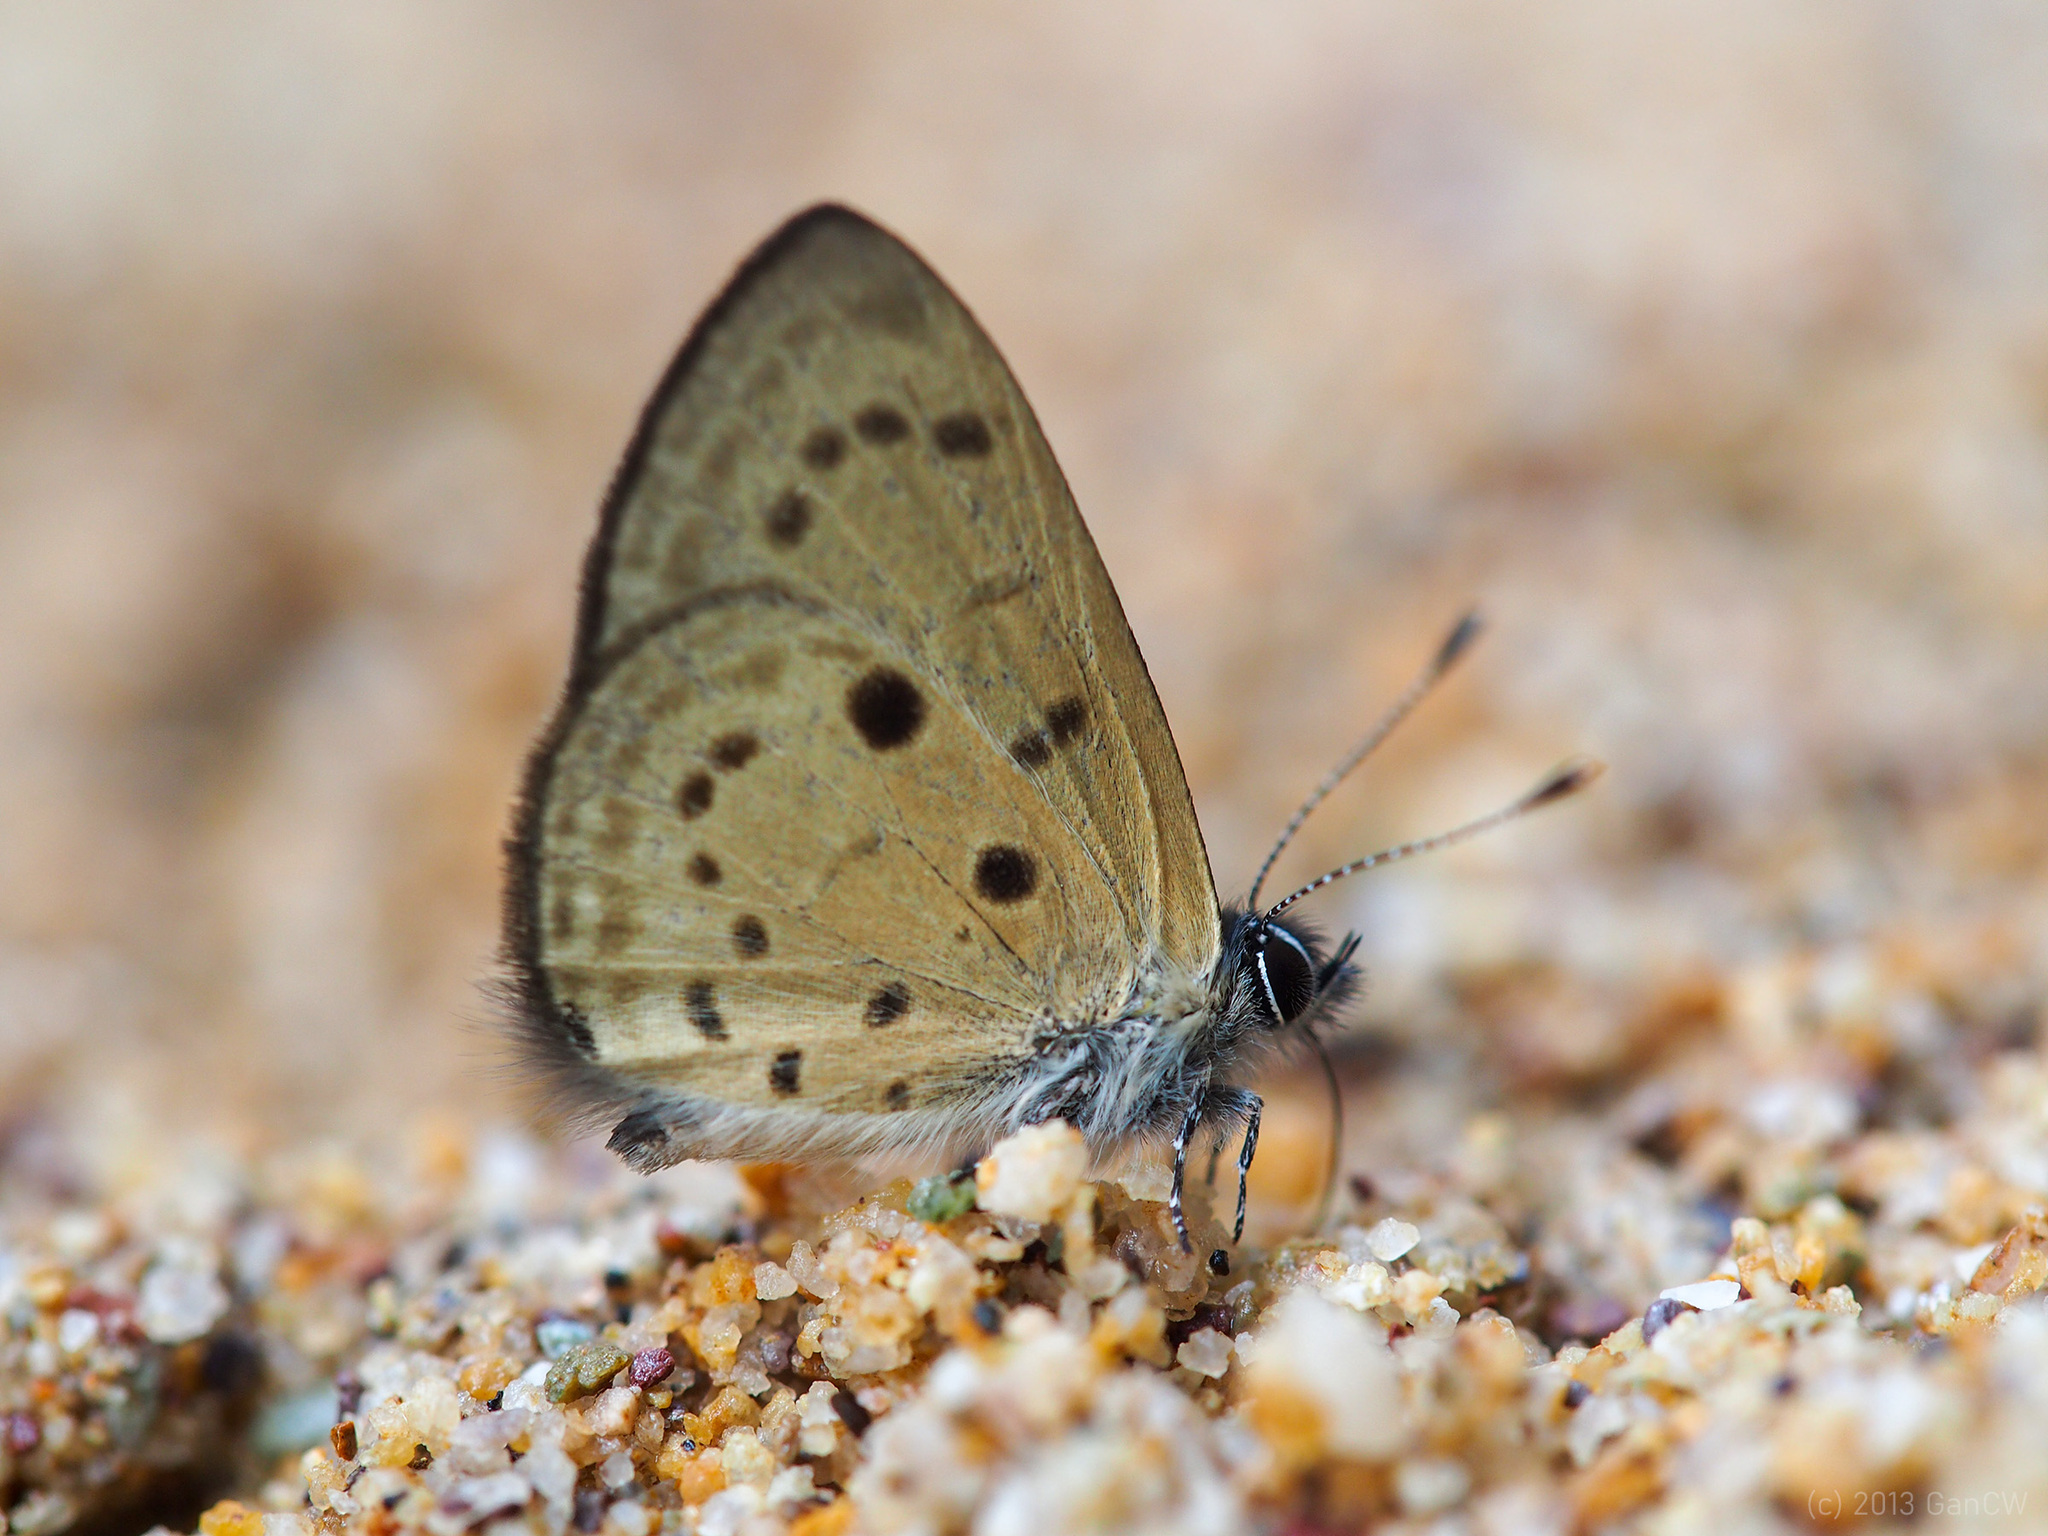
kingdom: Animalia
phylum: Arthropoda
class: Insecta
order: Lepidoptera
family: Lycaenidae
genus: Una
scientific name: Una usta
